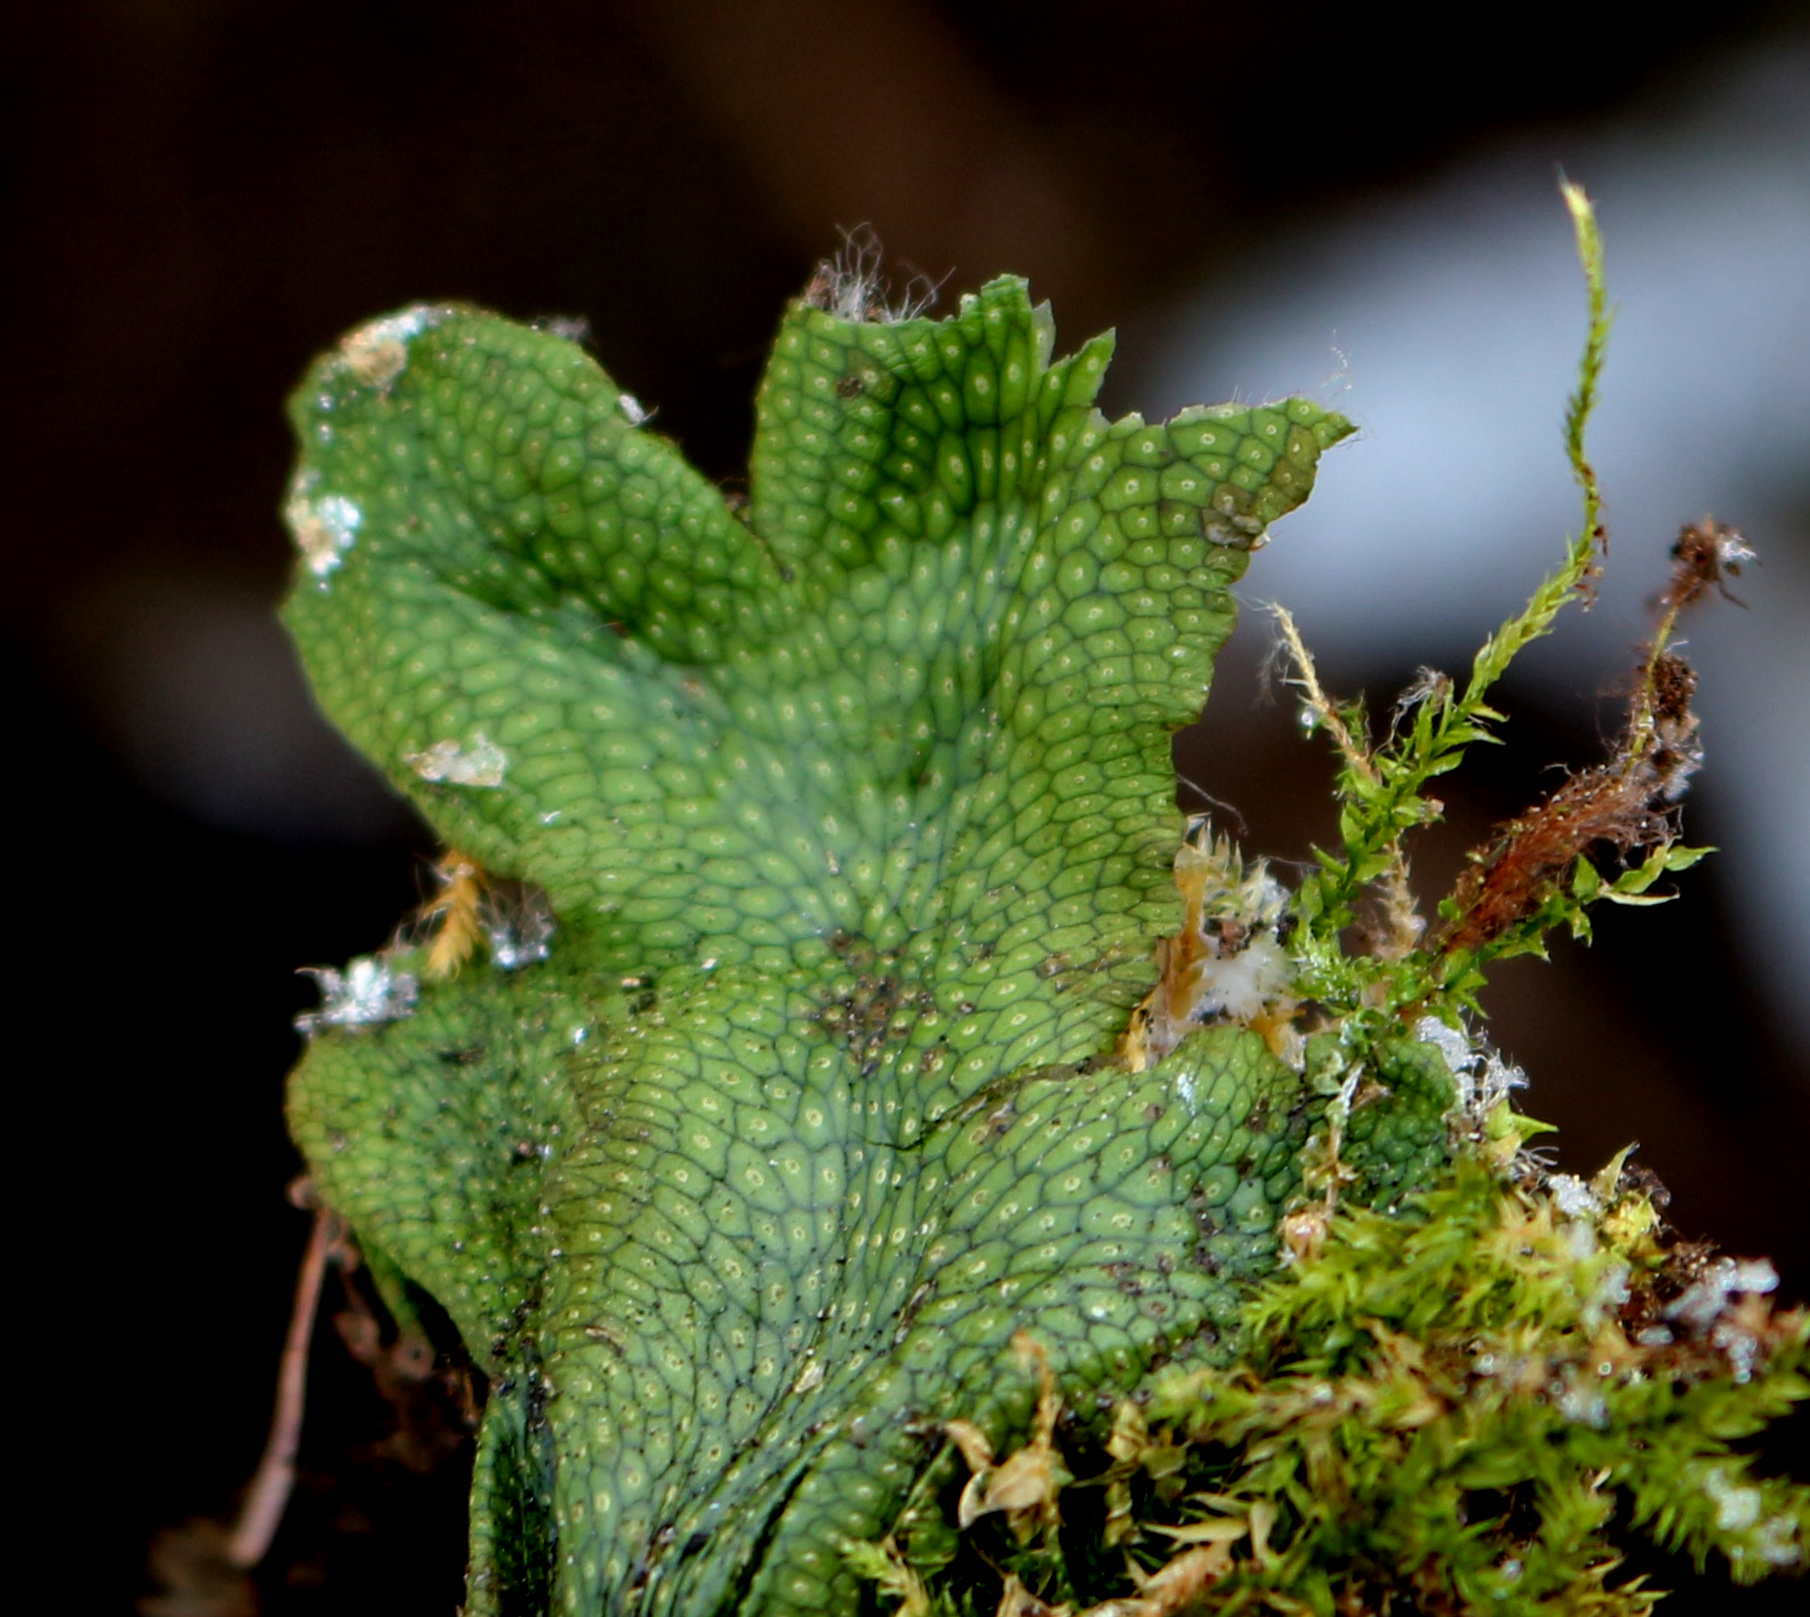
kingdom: Plantae
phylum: Marchantiophyta
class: Marchantiopsida
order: Marchantiales
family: Conocephalaceae
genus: Conocephalum
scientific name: Conocephalum salebrosum
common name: Cat-tongue liverwort
